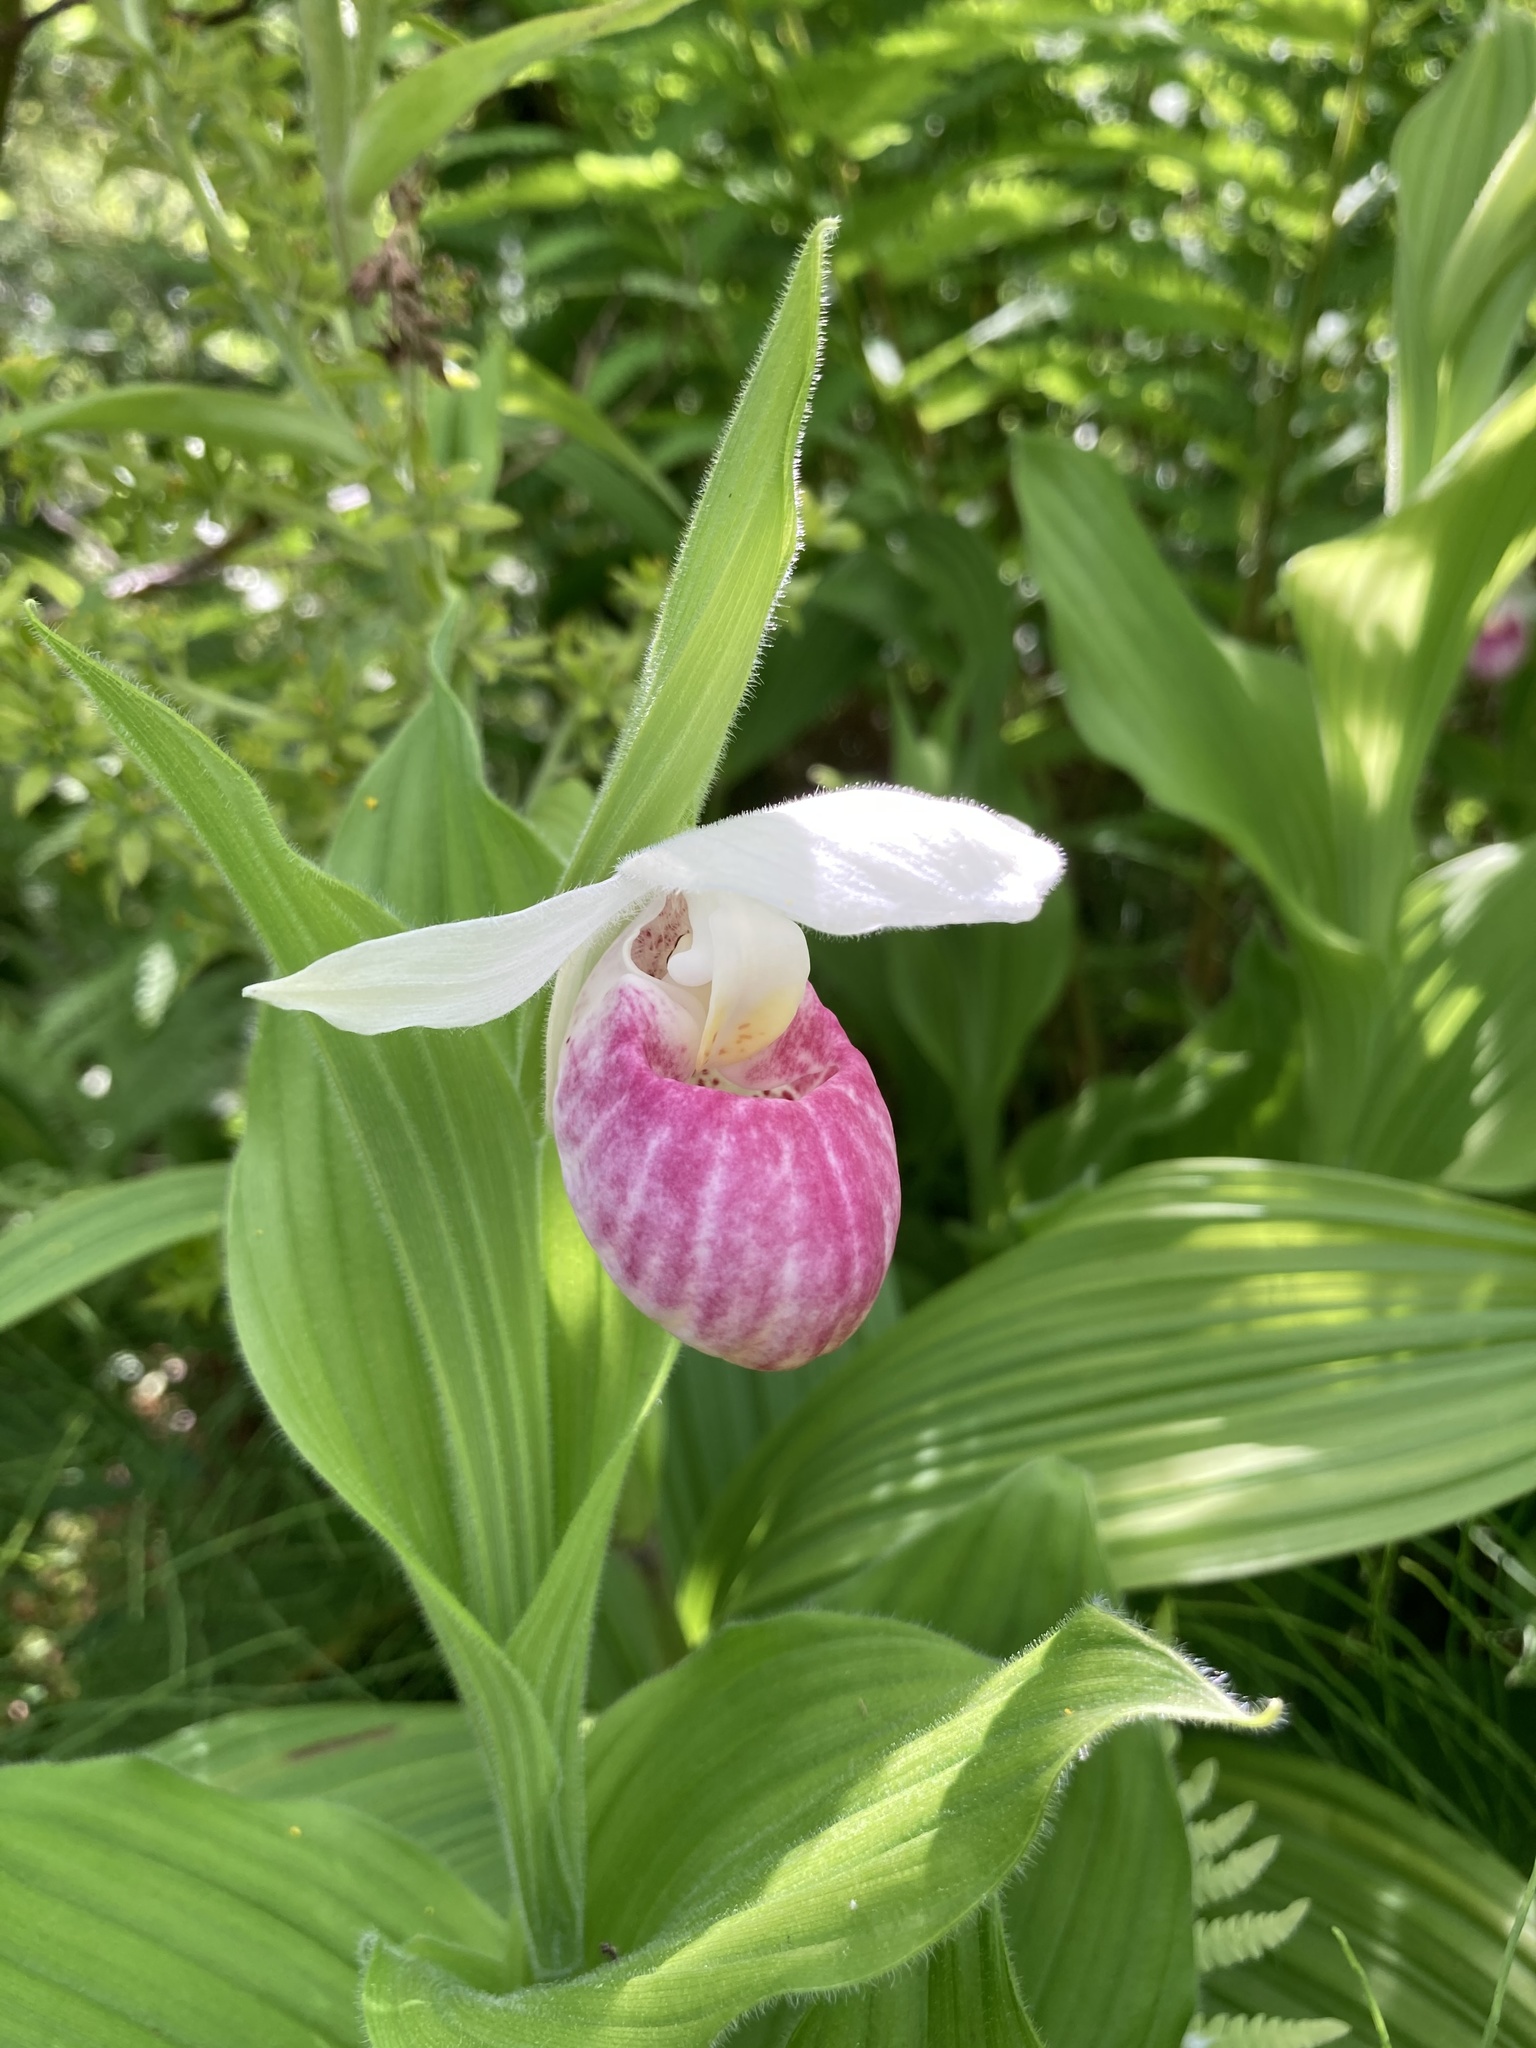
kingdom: Plantae
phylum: Tracheophyta
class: Liliopsida
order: Asparagales
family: Orchidaceae
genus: Cypripedium
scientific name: Cypripedium reginae
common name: Queen lady's-slipper
